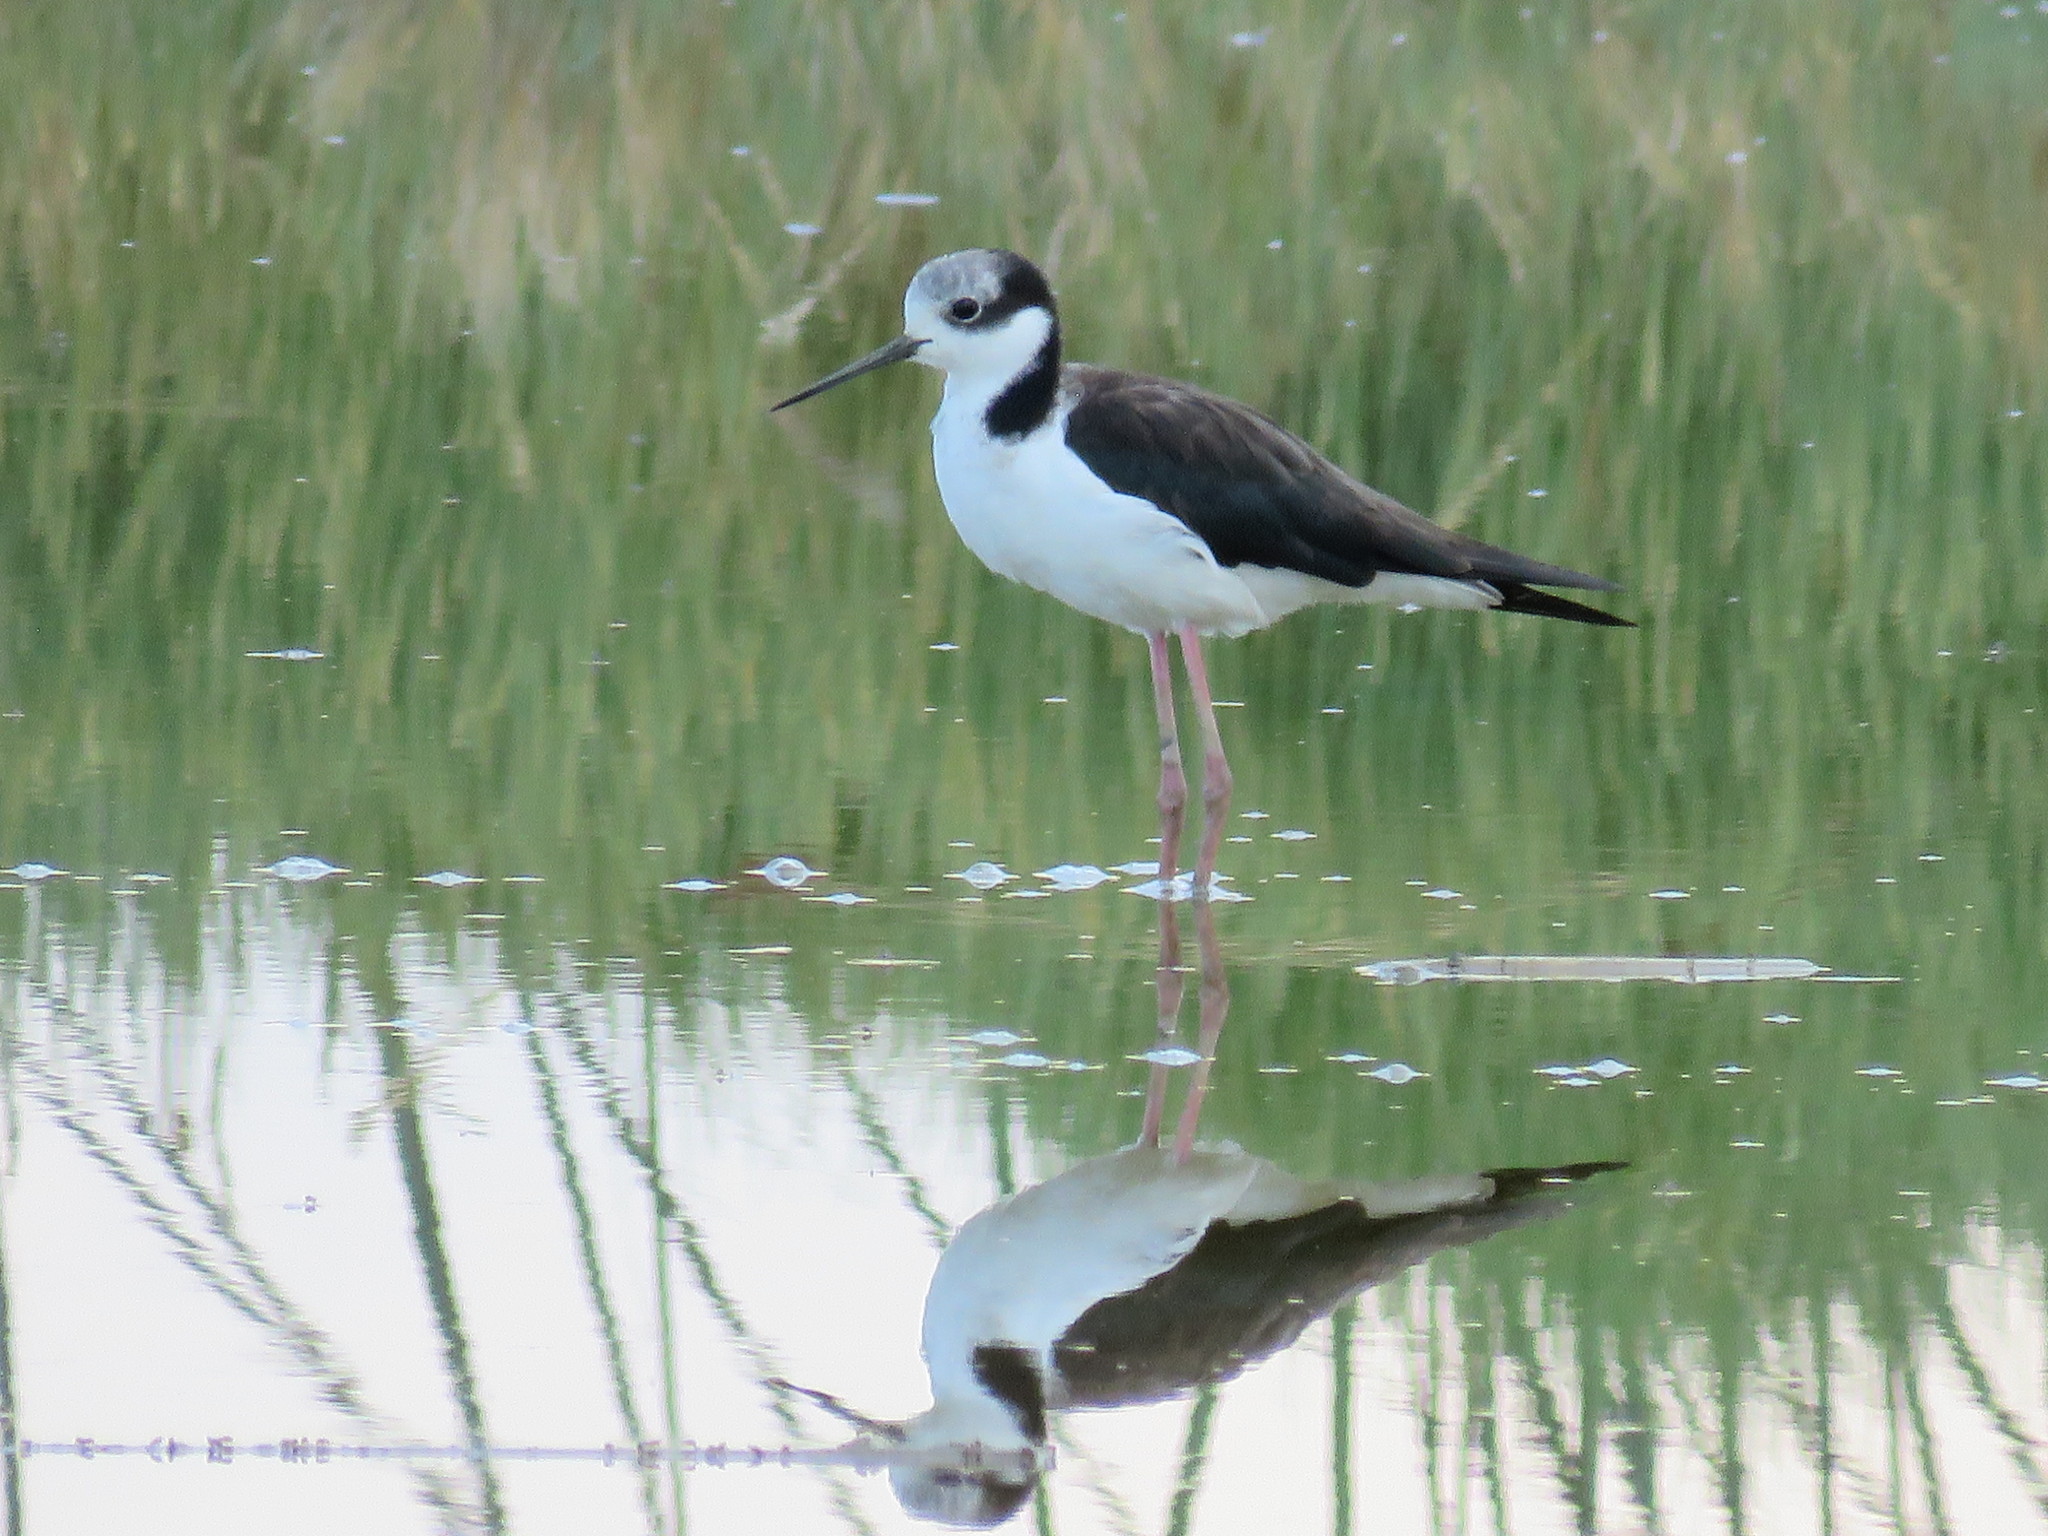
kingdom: Animalia
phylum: Chordata
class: Aves
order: Charadriiformes
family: Recurvirostridae
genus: Himantopus
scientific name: Himantopus mexicanus
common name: Black-necked stilt
